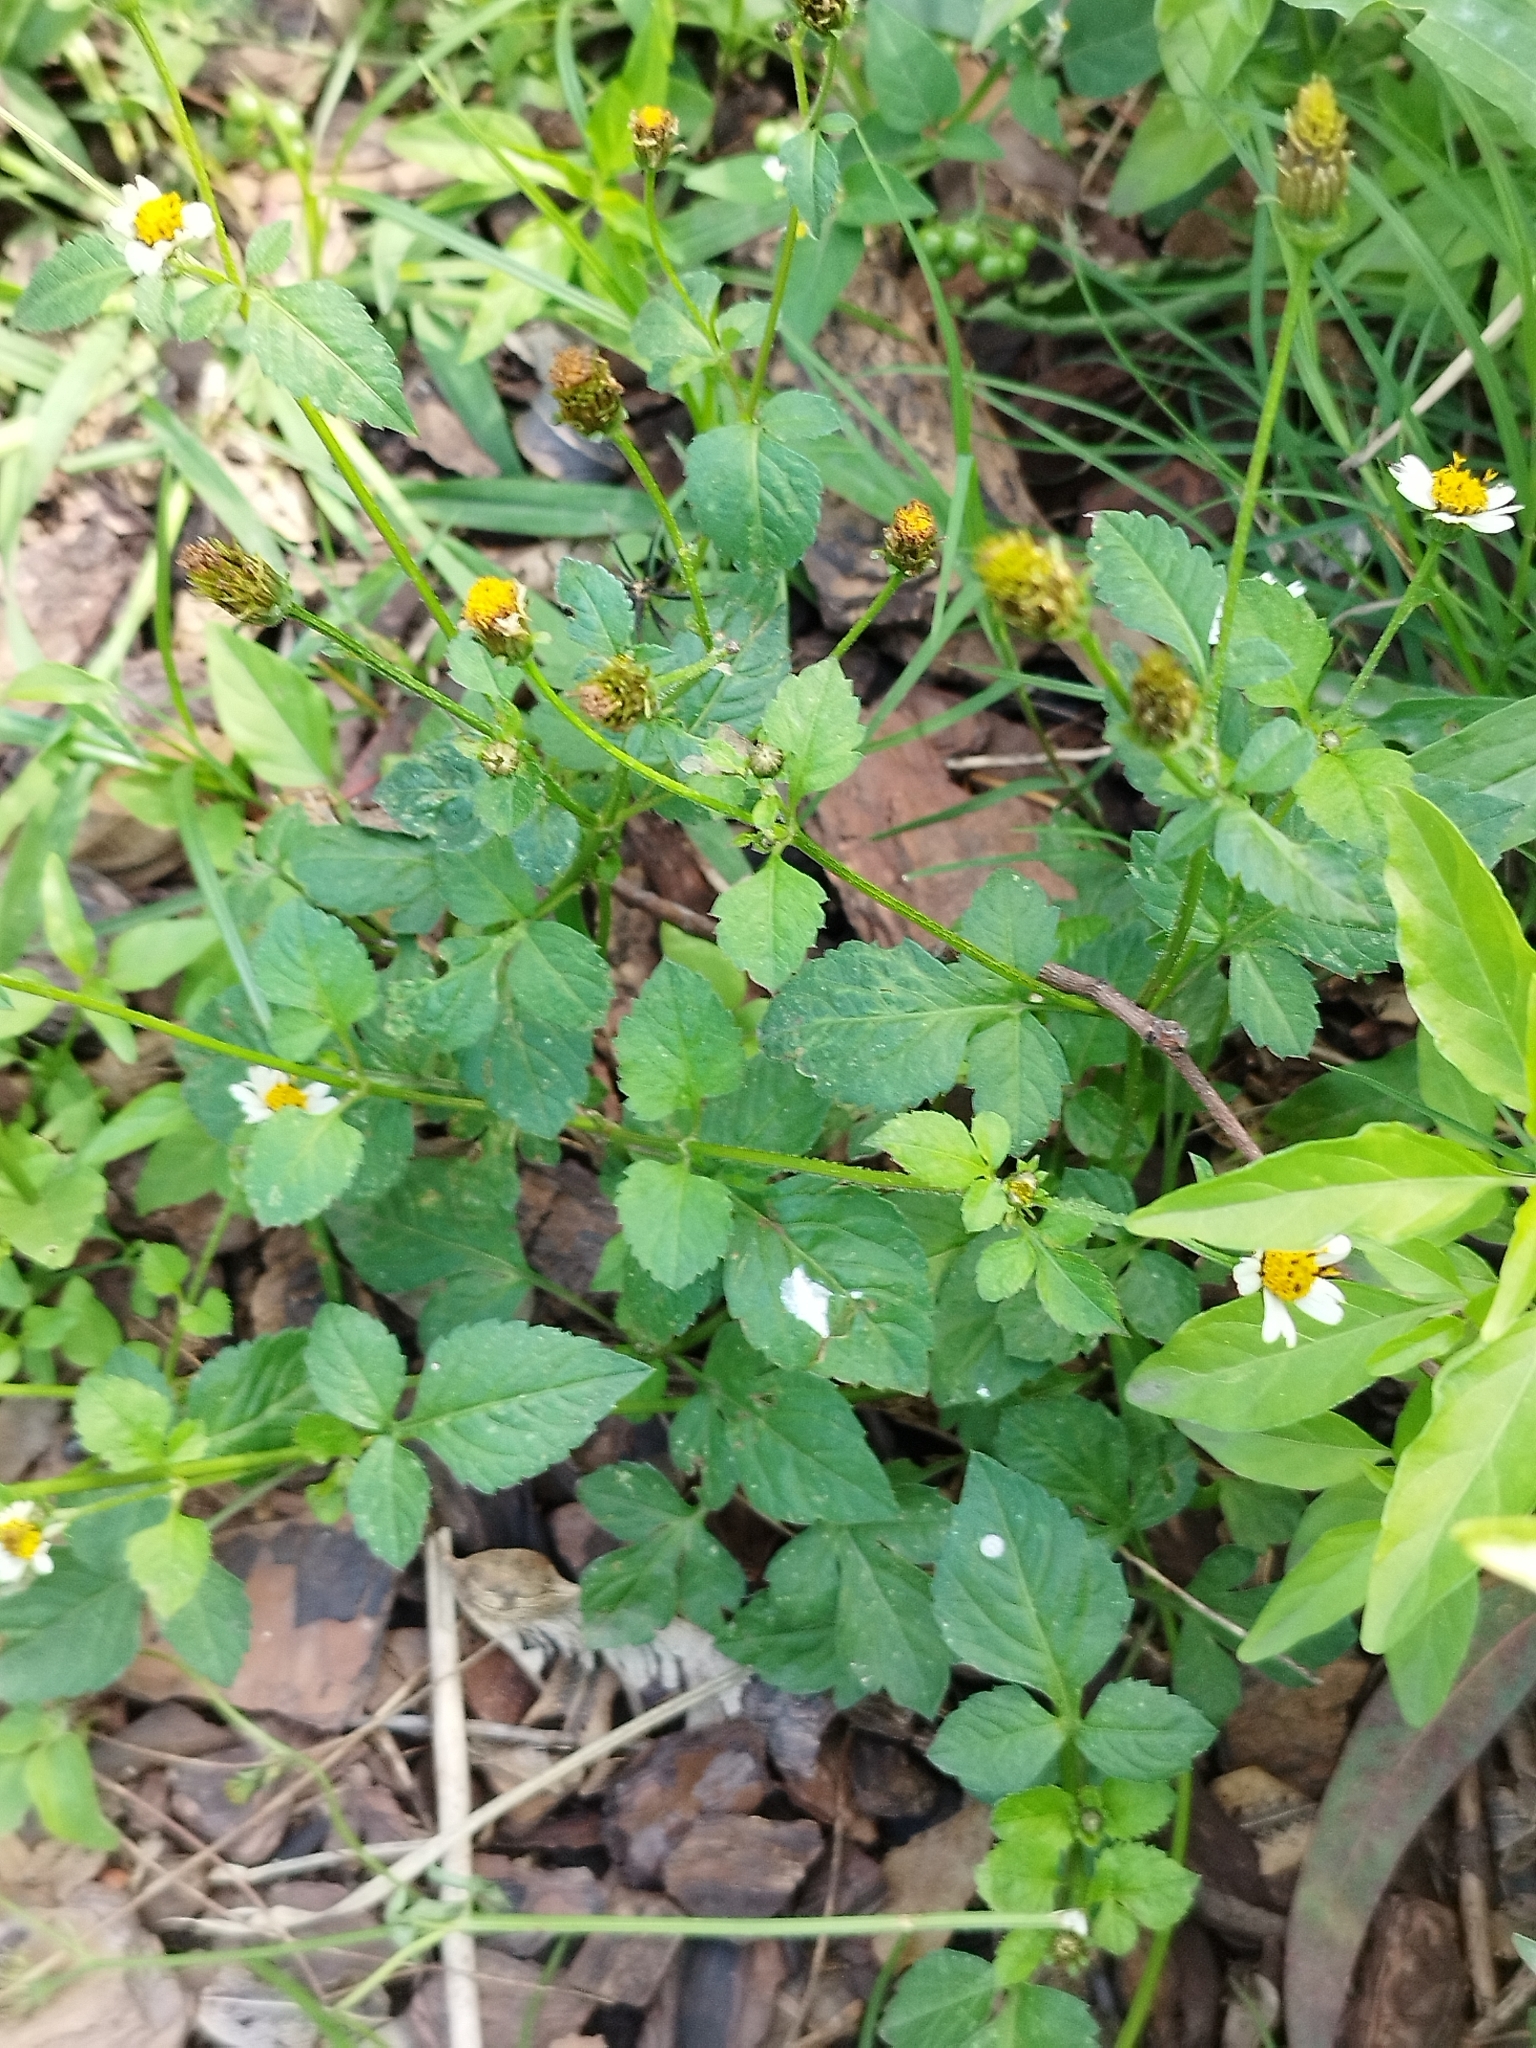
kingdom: Plantae
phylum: Tracheophyta
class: Magnoliopsida
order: Asterales
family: Asteraceae
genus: Bidens
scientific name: Bidens pilosa
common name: Black-jack
